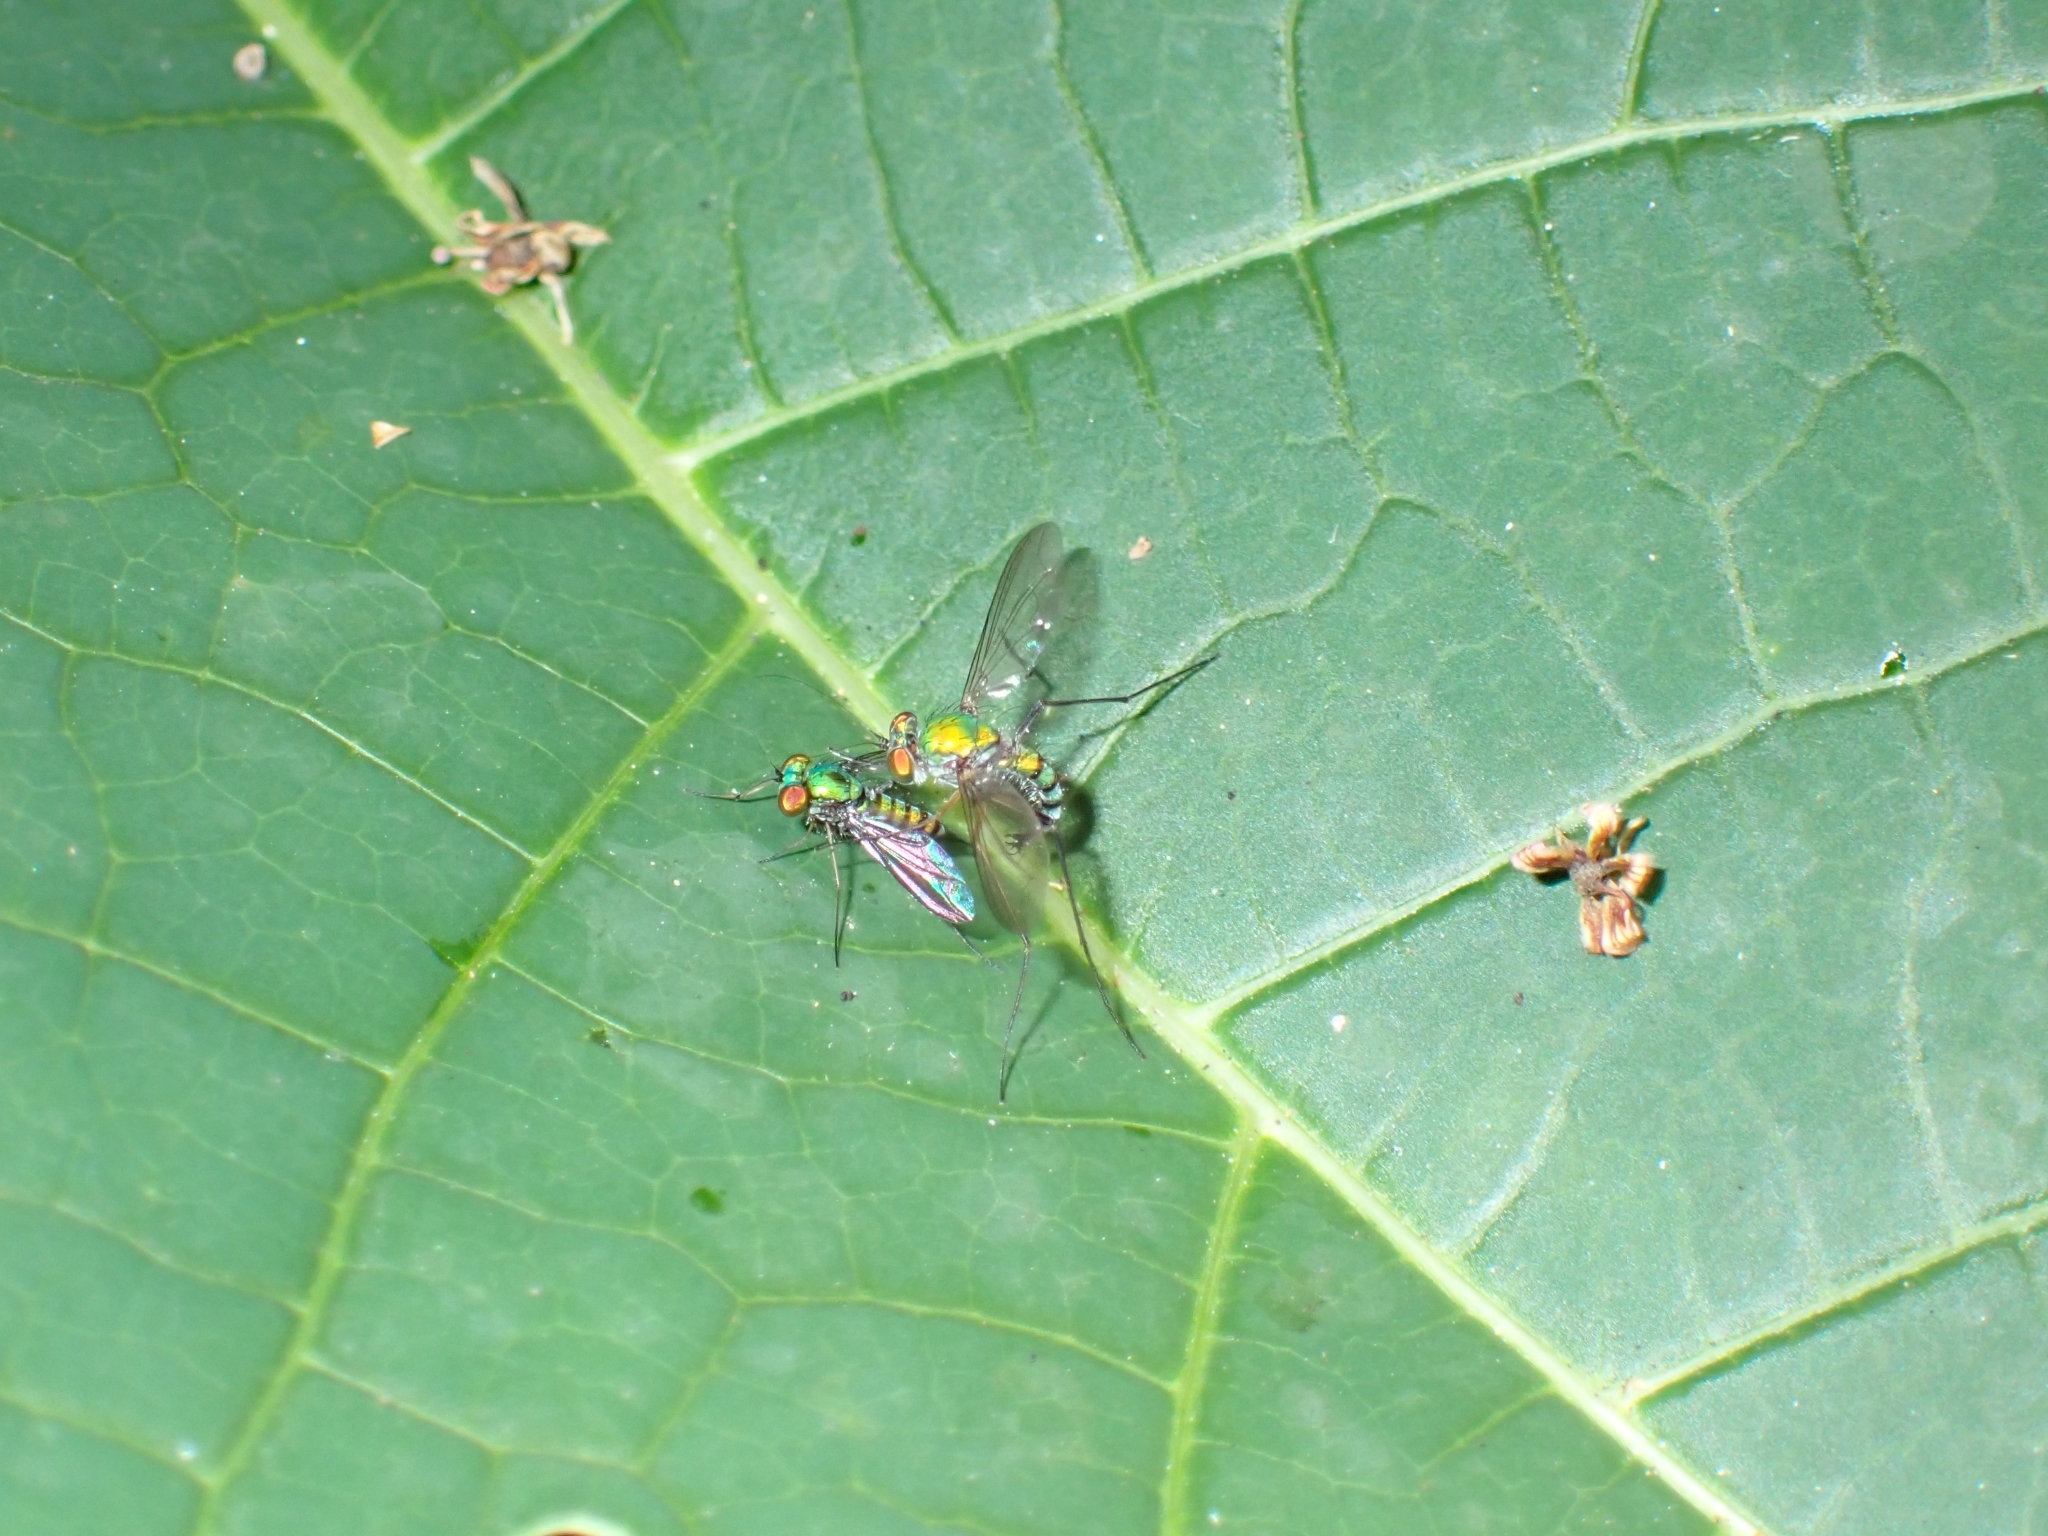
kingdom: Animalia
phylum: Arthropoda
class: Insecta
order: Diptera
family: Dolichopodidae
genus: Chrysosoma
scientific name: Chrysosoma globifer
